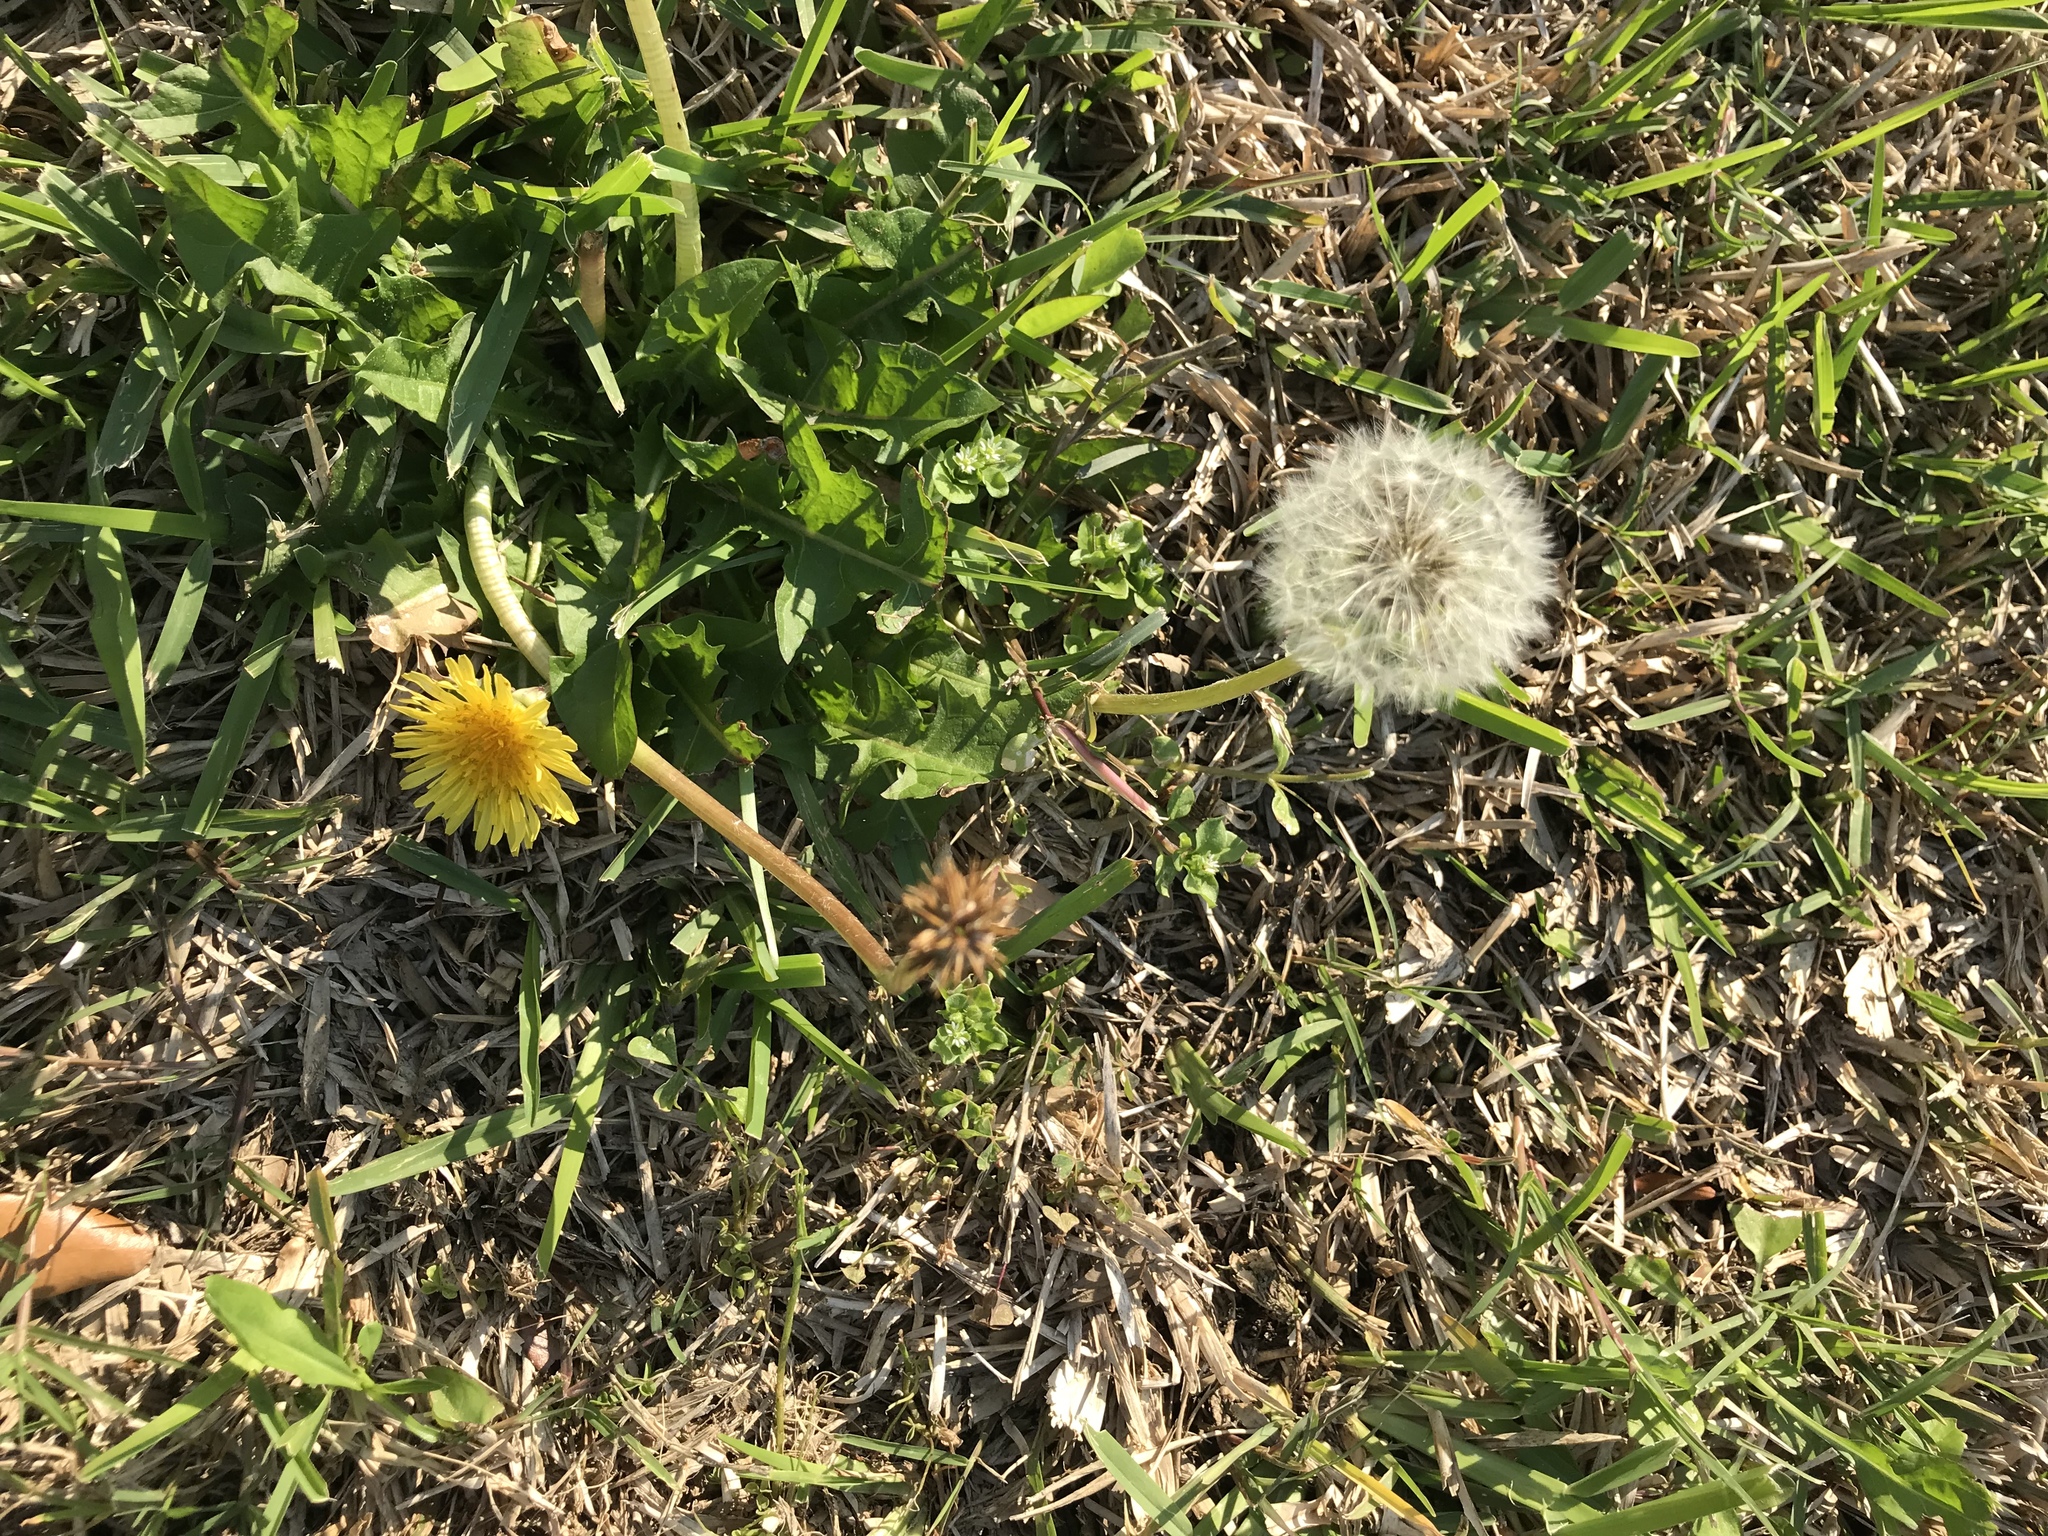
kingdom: Plantae
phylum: Tracheophyta
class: Magnoliopsida
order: Asterales
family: Asteraceae
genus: Taraxacum
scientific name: Taraxacum officinale
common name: Common dandelion
